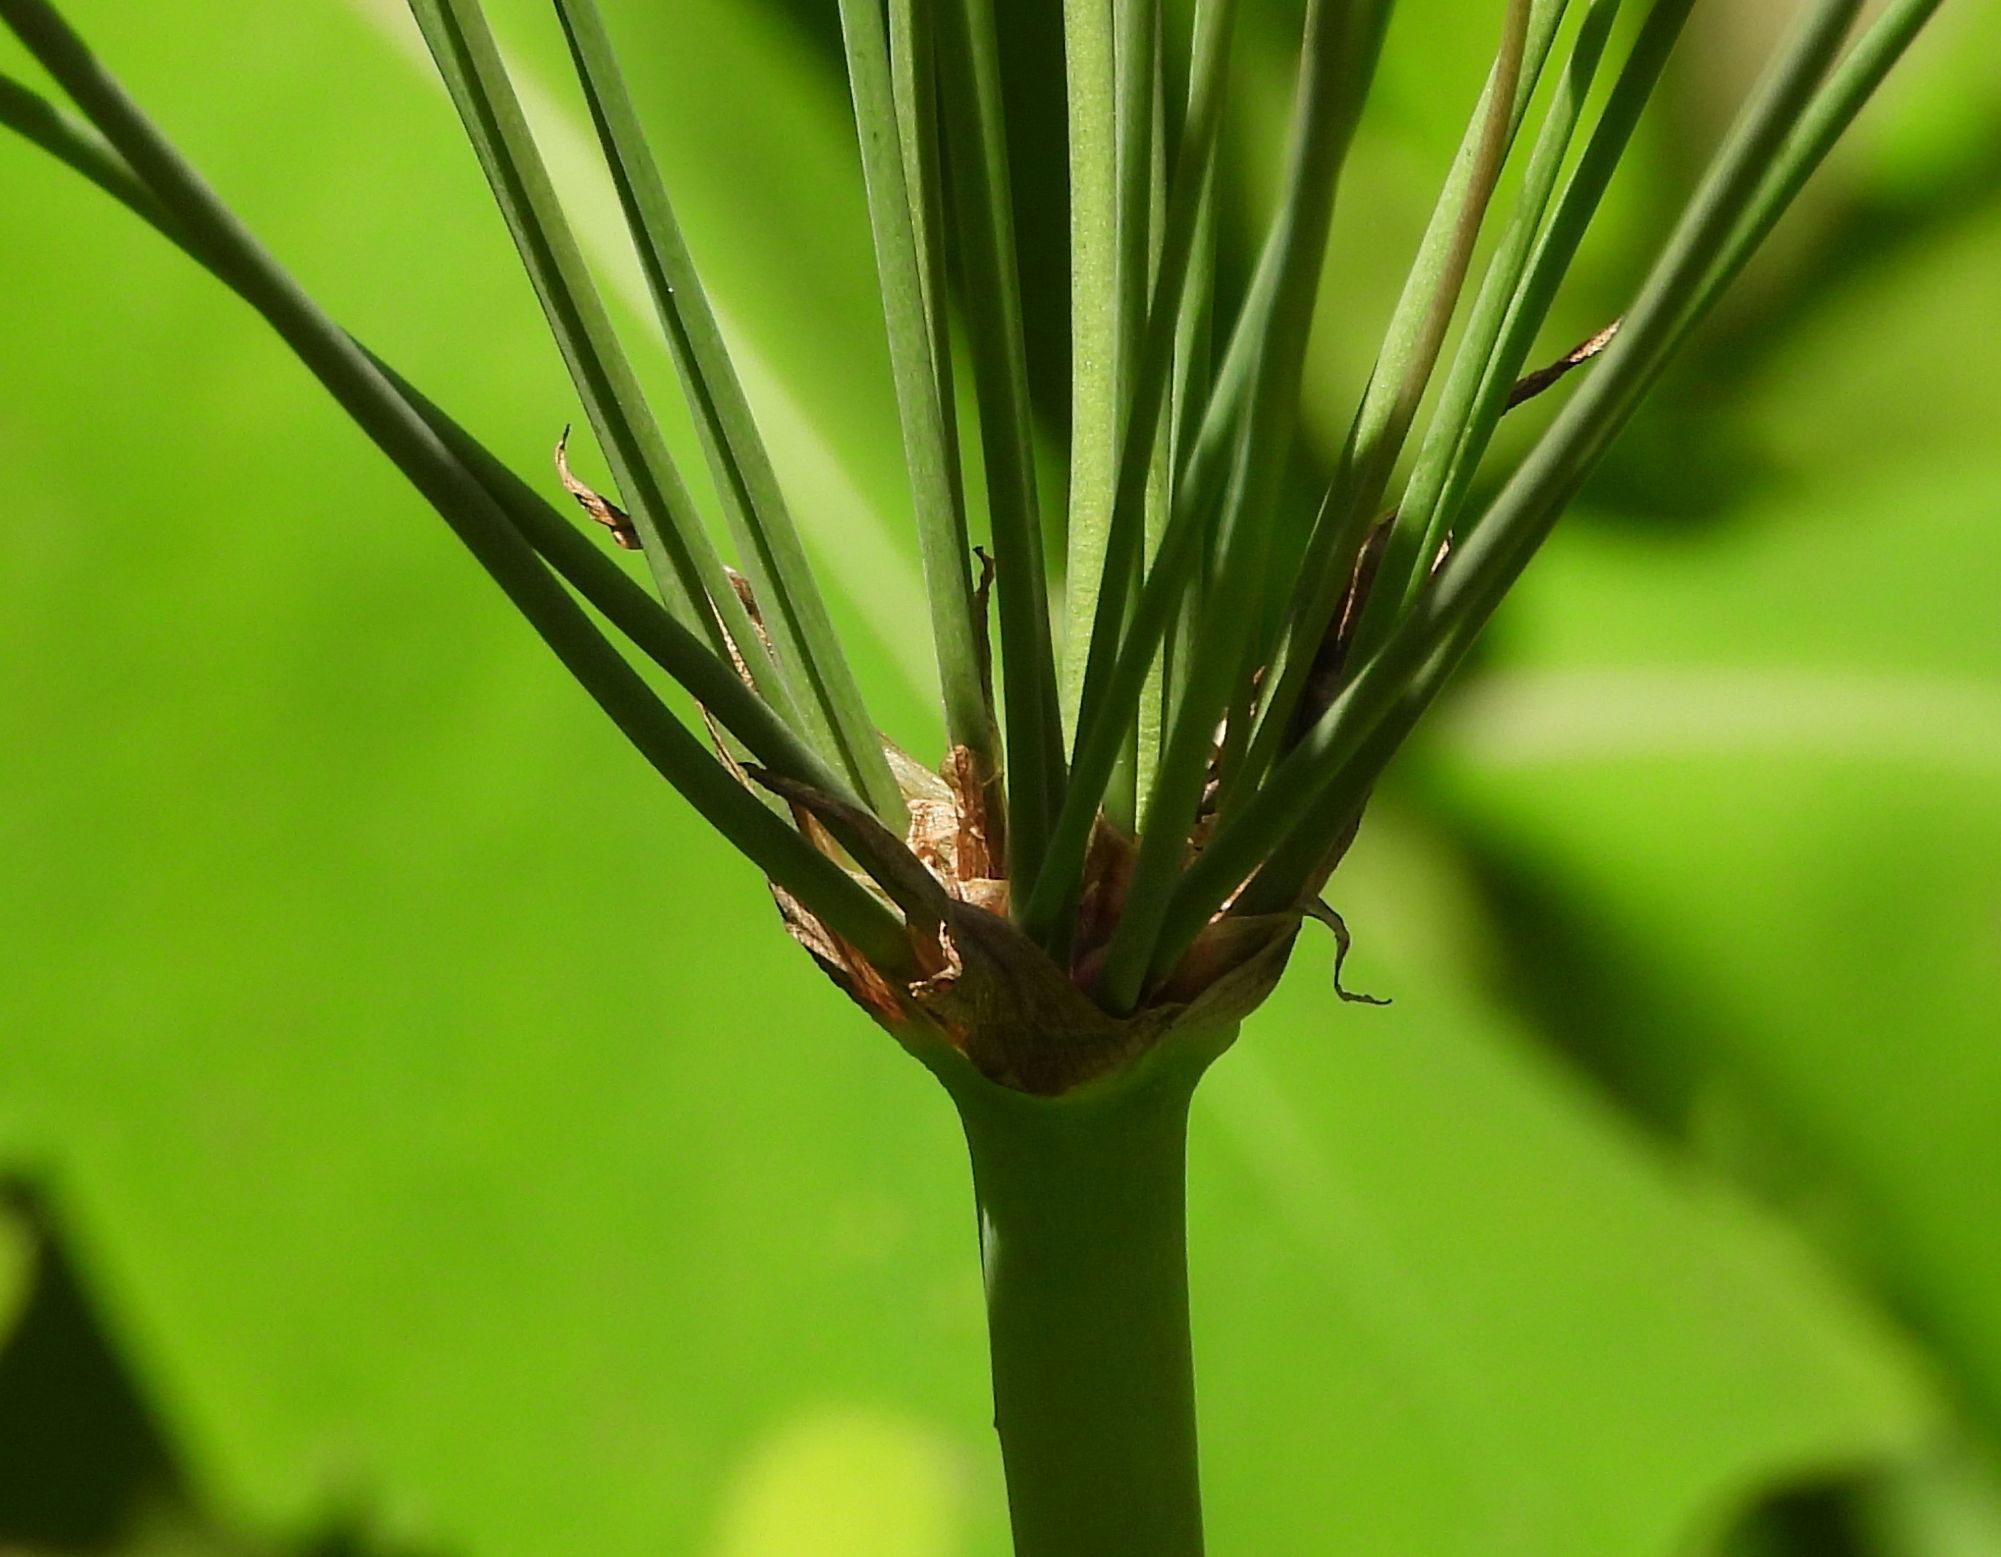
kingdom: Plantae
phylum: Tracheophyta
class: Liliopsida
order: Alismatales
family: Butomaceae
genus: Butomus
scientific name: Butomus umbellatus
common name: Flowering-rush
